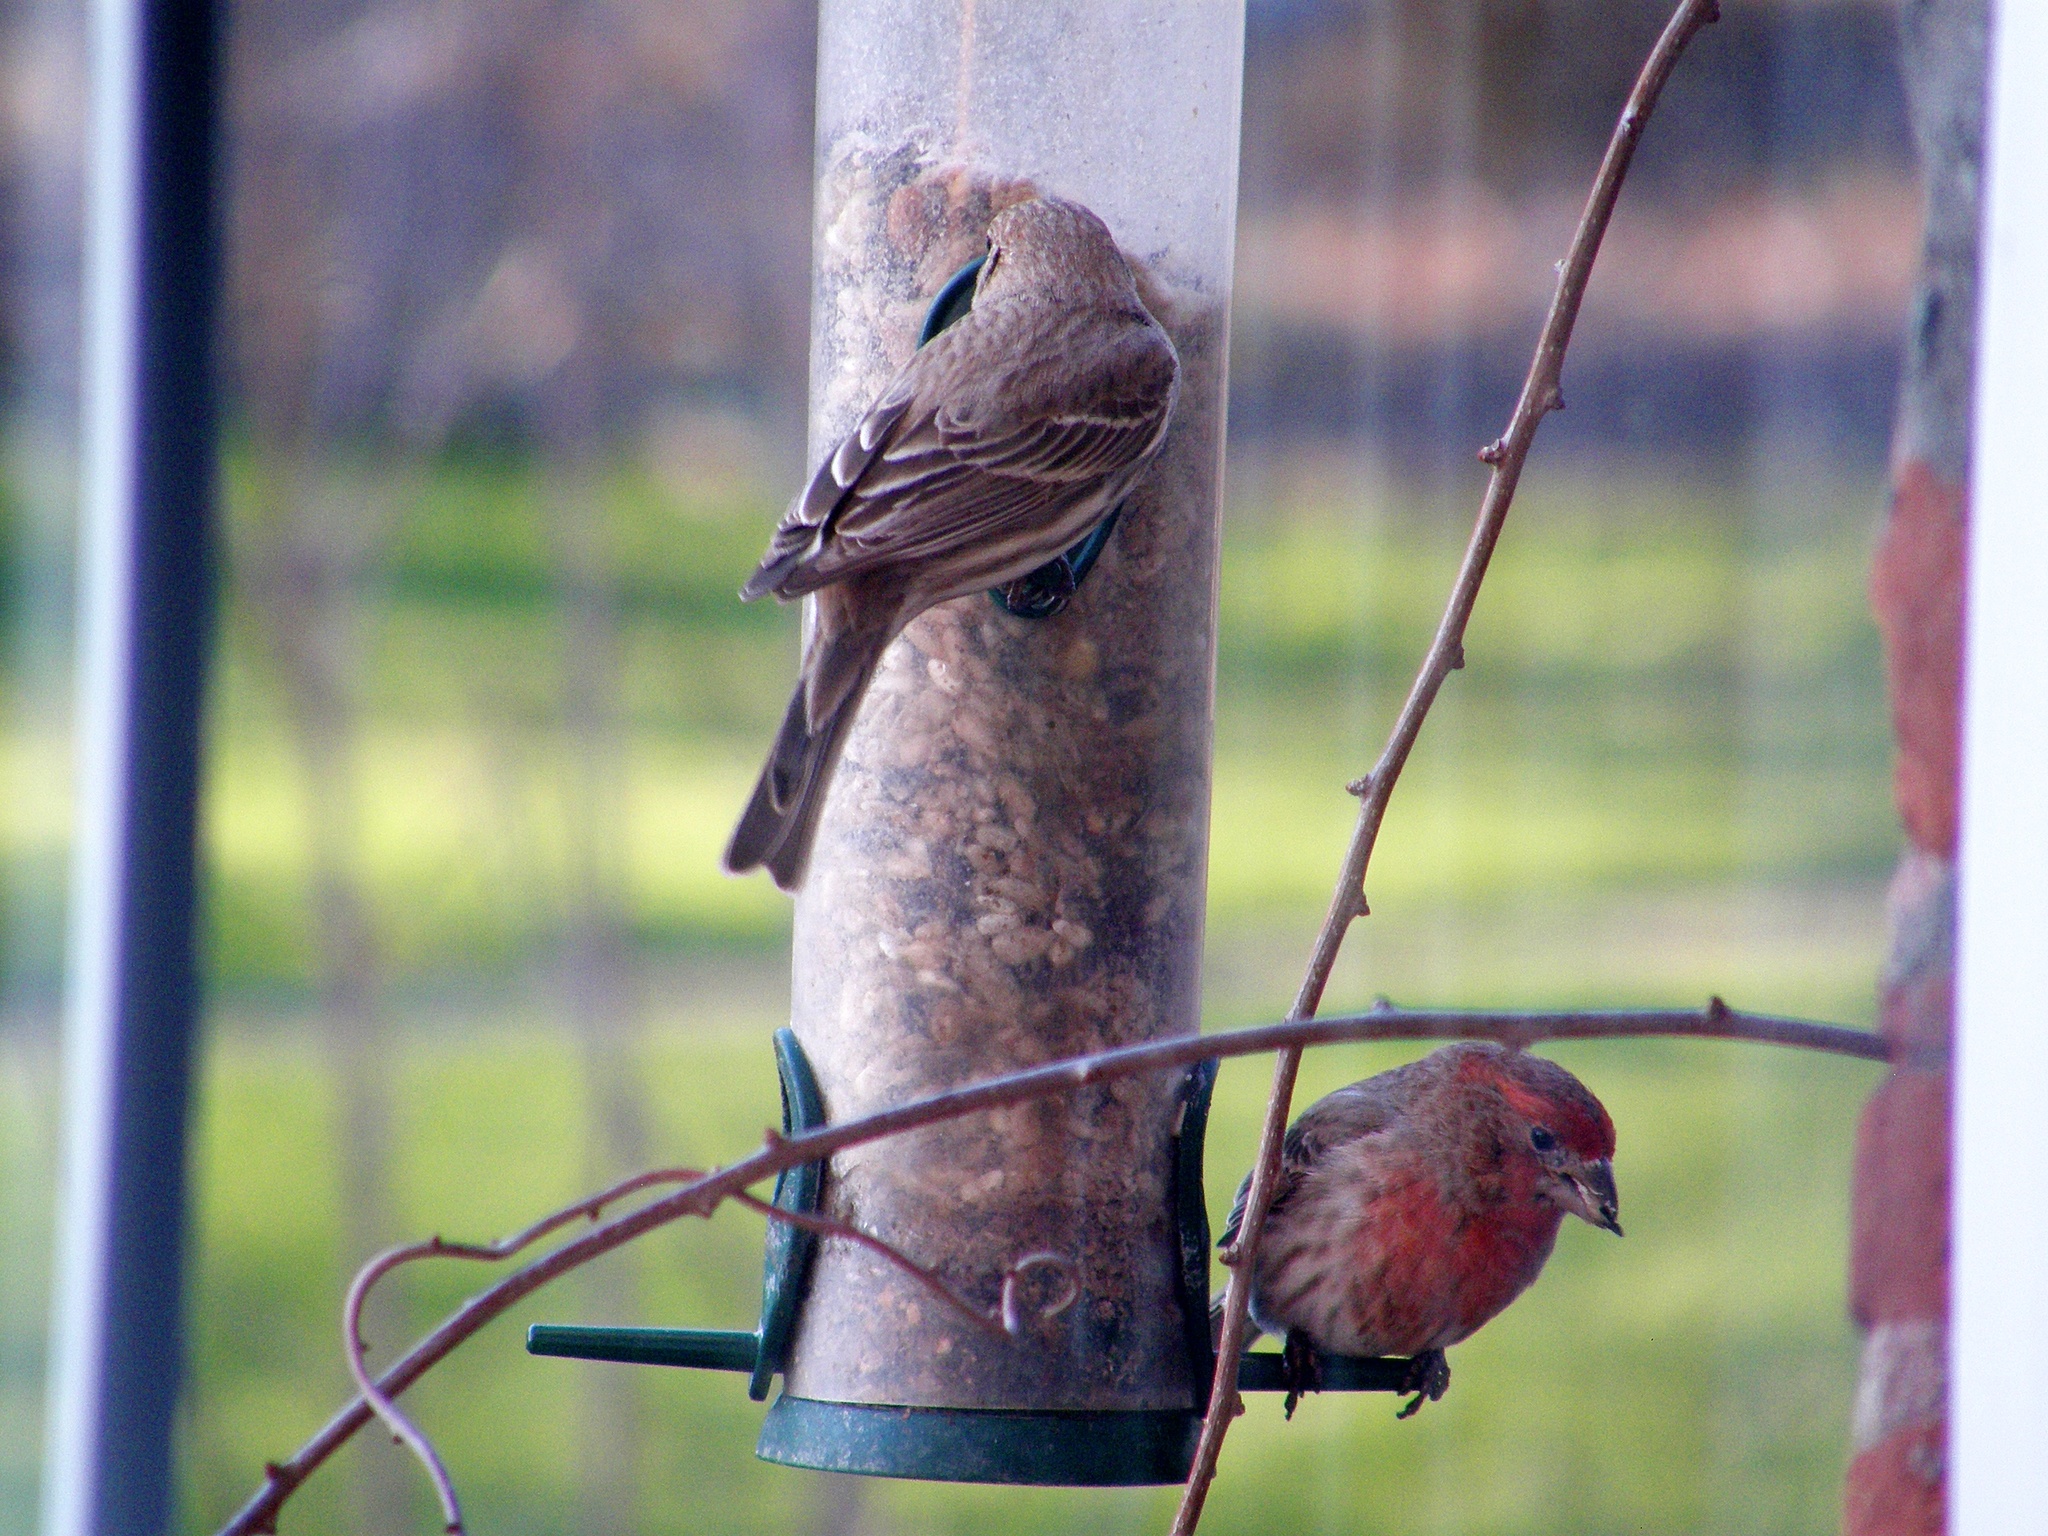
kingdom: Animalia
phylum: Chordata
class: Aves
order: Passeriformes
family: Fringillidae
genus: Haemorhous
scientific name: Haemorhous mexicanus
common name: House finch
